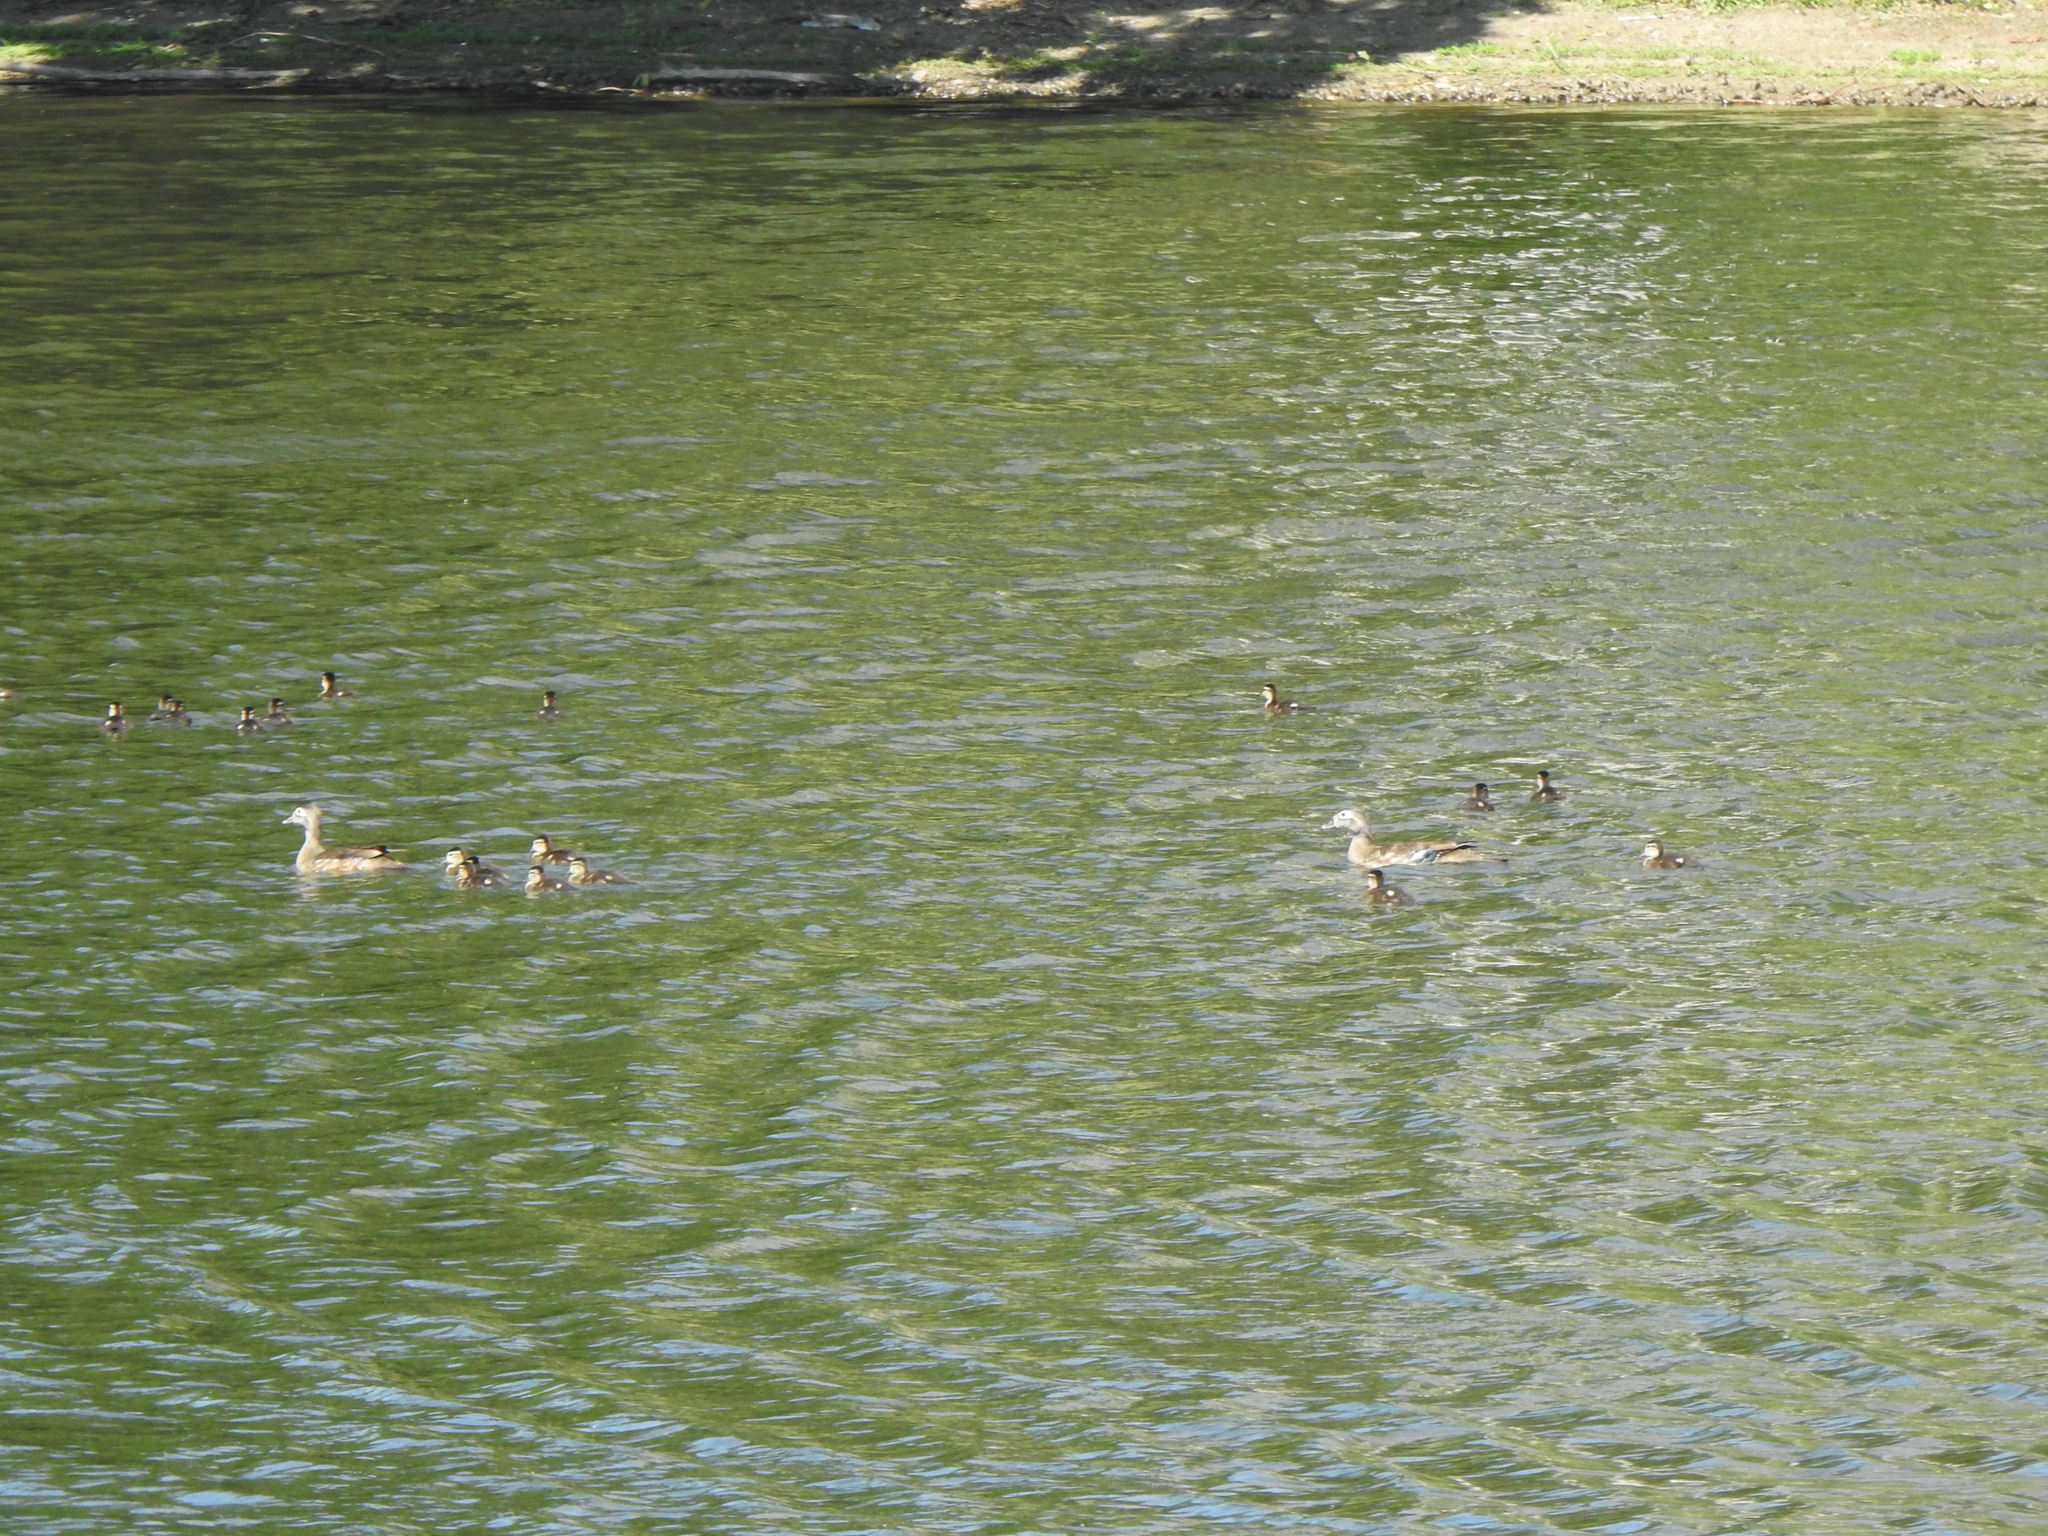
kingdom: Animalia
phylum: Chordata
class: Aves
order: Anseriformes
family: Anatidae
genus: Aix
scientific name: Aix sponsa
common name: Wood duck
